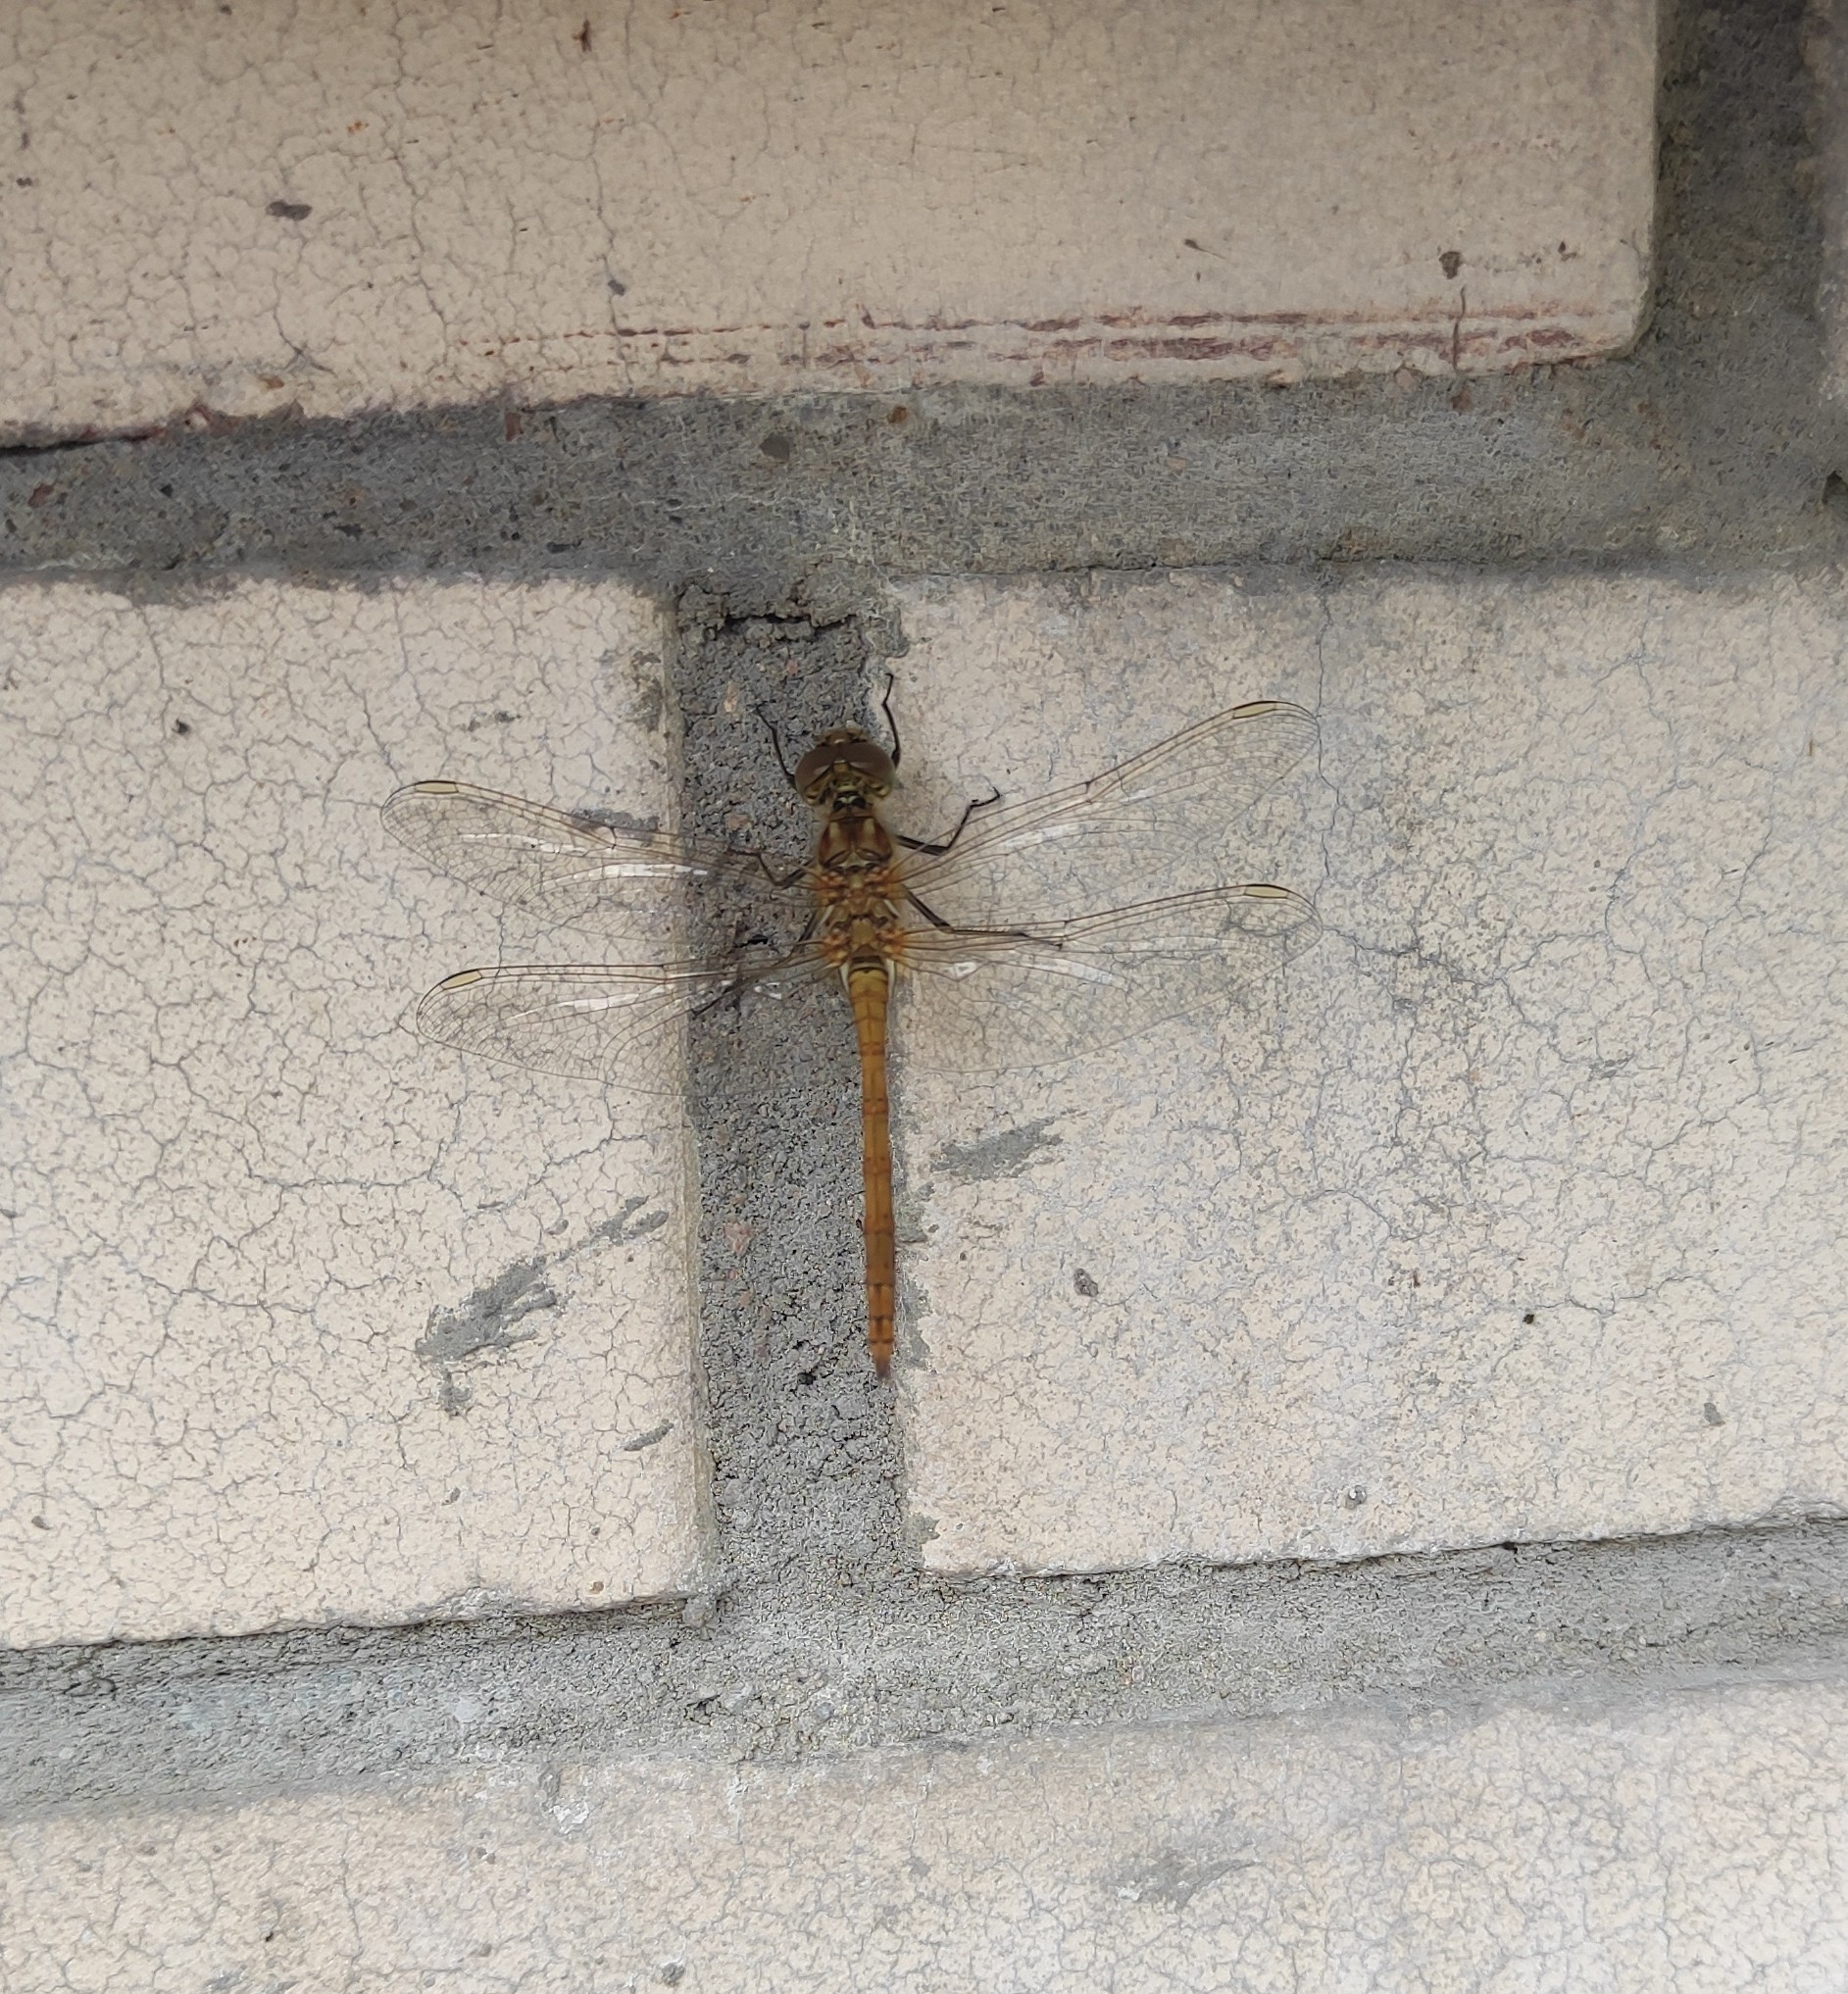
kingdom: Animalia
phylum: Arthropoda
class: Insecta
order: Odonata
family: Libellulidae
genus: Sympetrum
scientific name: Sympetrum vulgatum
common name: Vagrant darter
